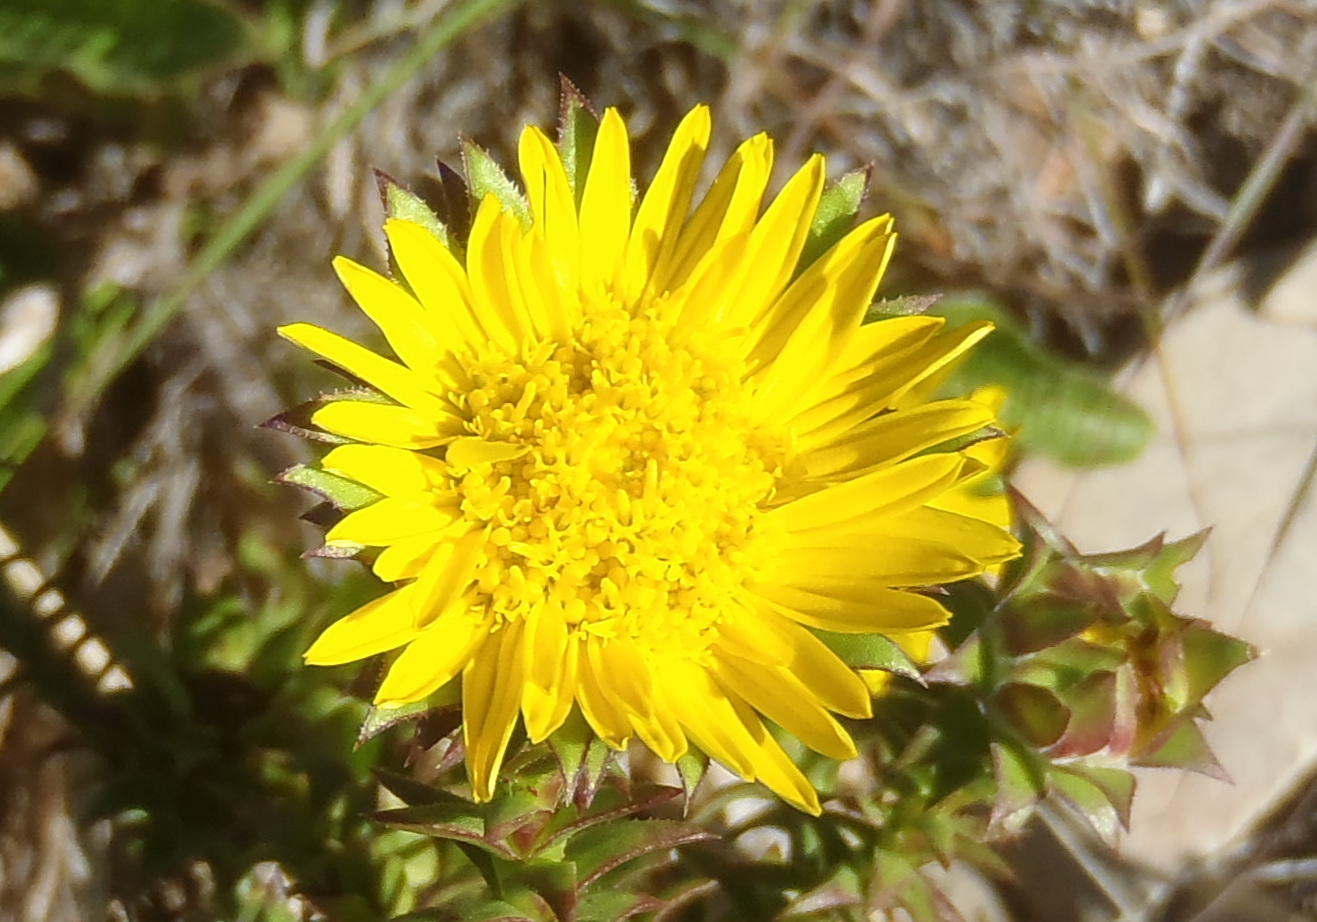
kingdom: Plantae
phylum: Tracheophyta
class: Magnoliopsida
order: Asterales
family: Asteraceae
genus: Oedera
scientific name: Oedera imbricata
